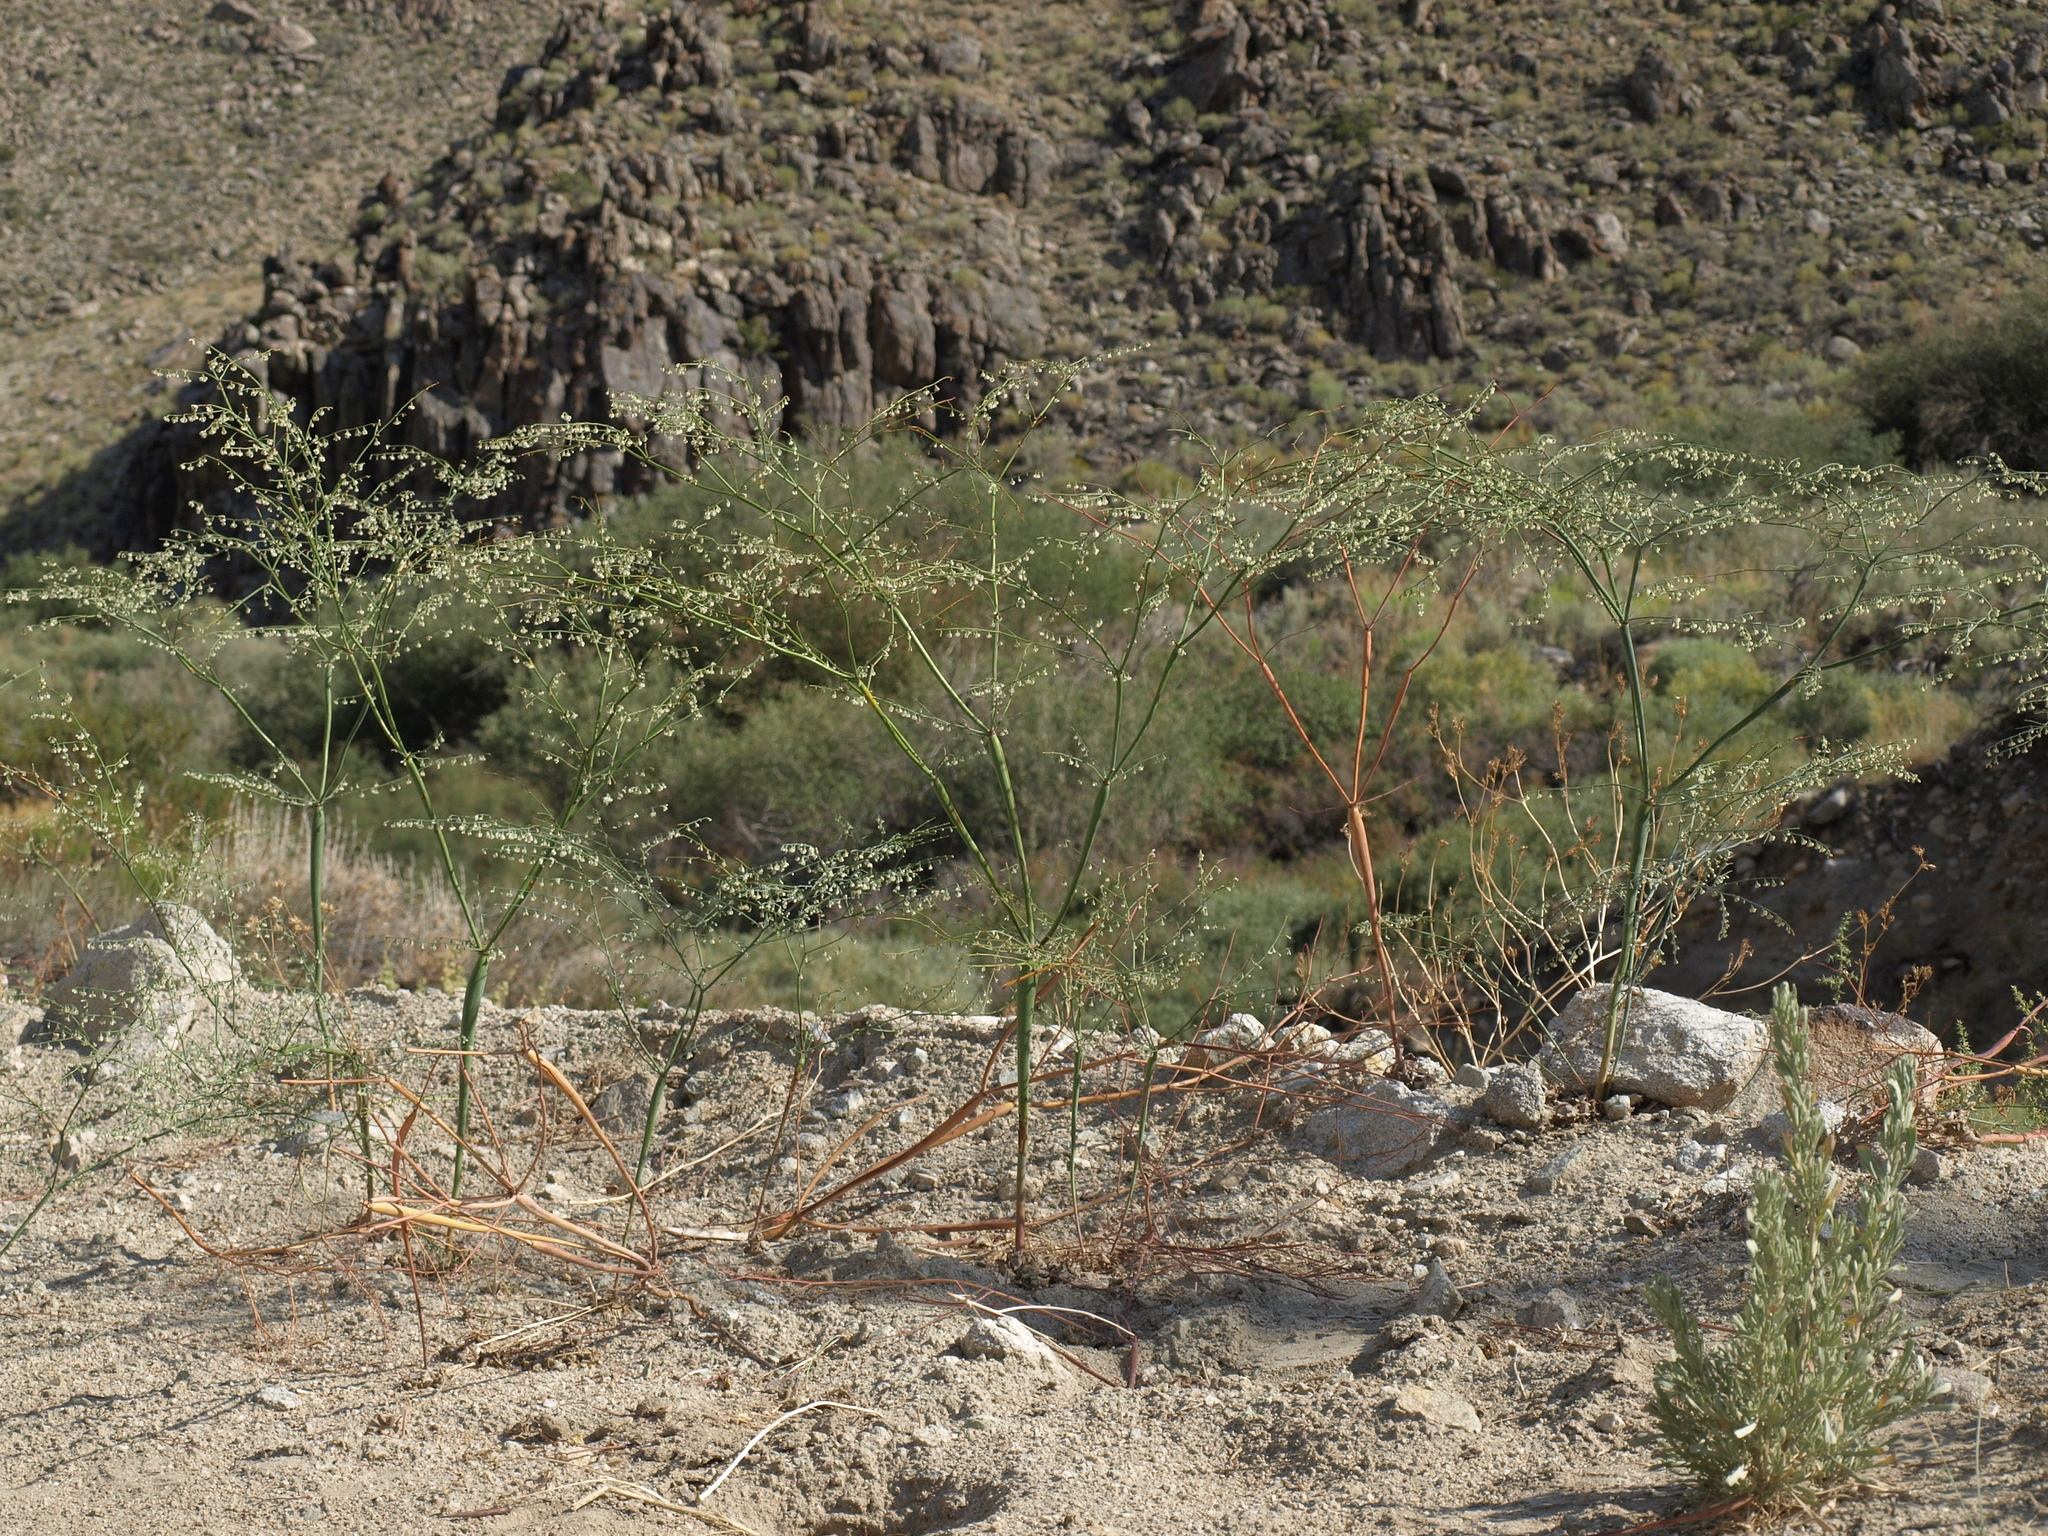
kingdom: Plantae
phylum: Tracheophyta
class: Magnoliopsida
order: Caryophyllales
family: Polygonaceae
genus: Eriogonum
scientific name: Eriogonum deflexum
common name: Skeleton-weed
